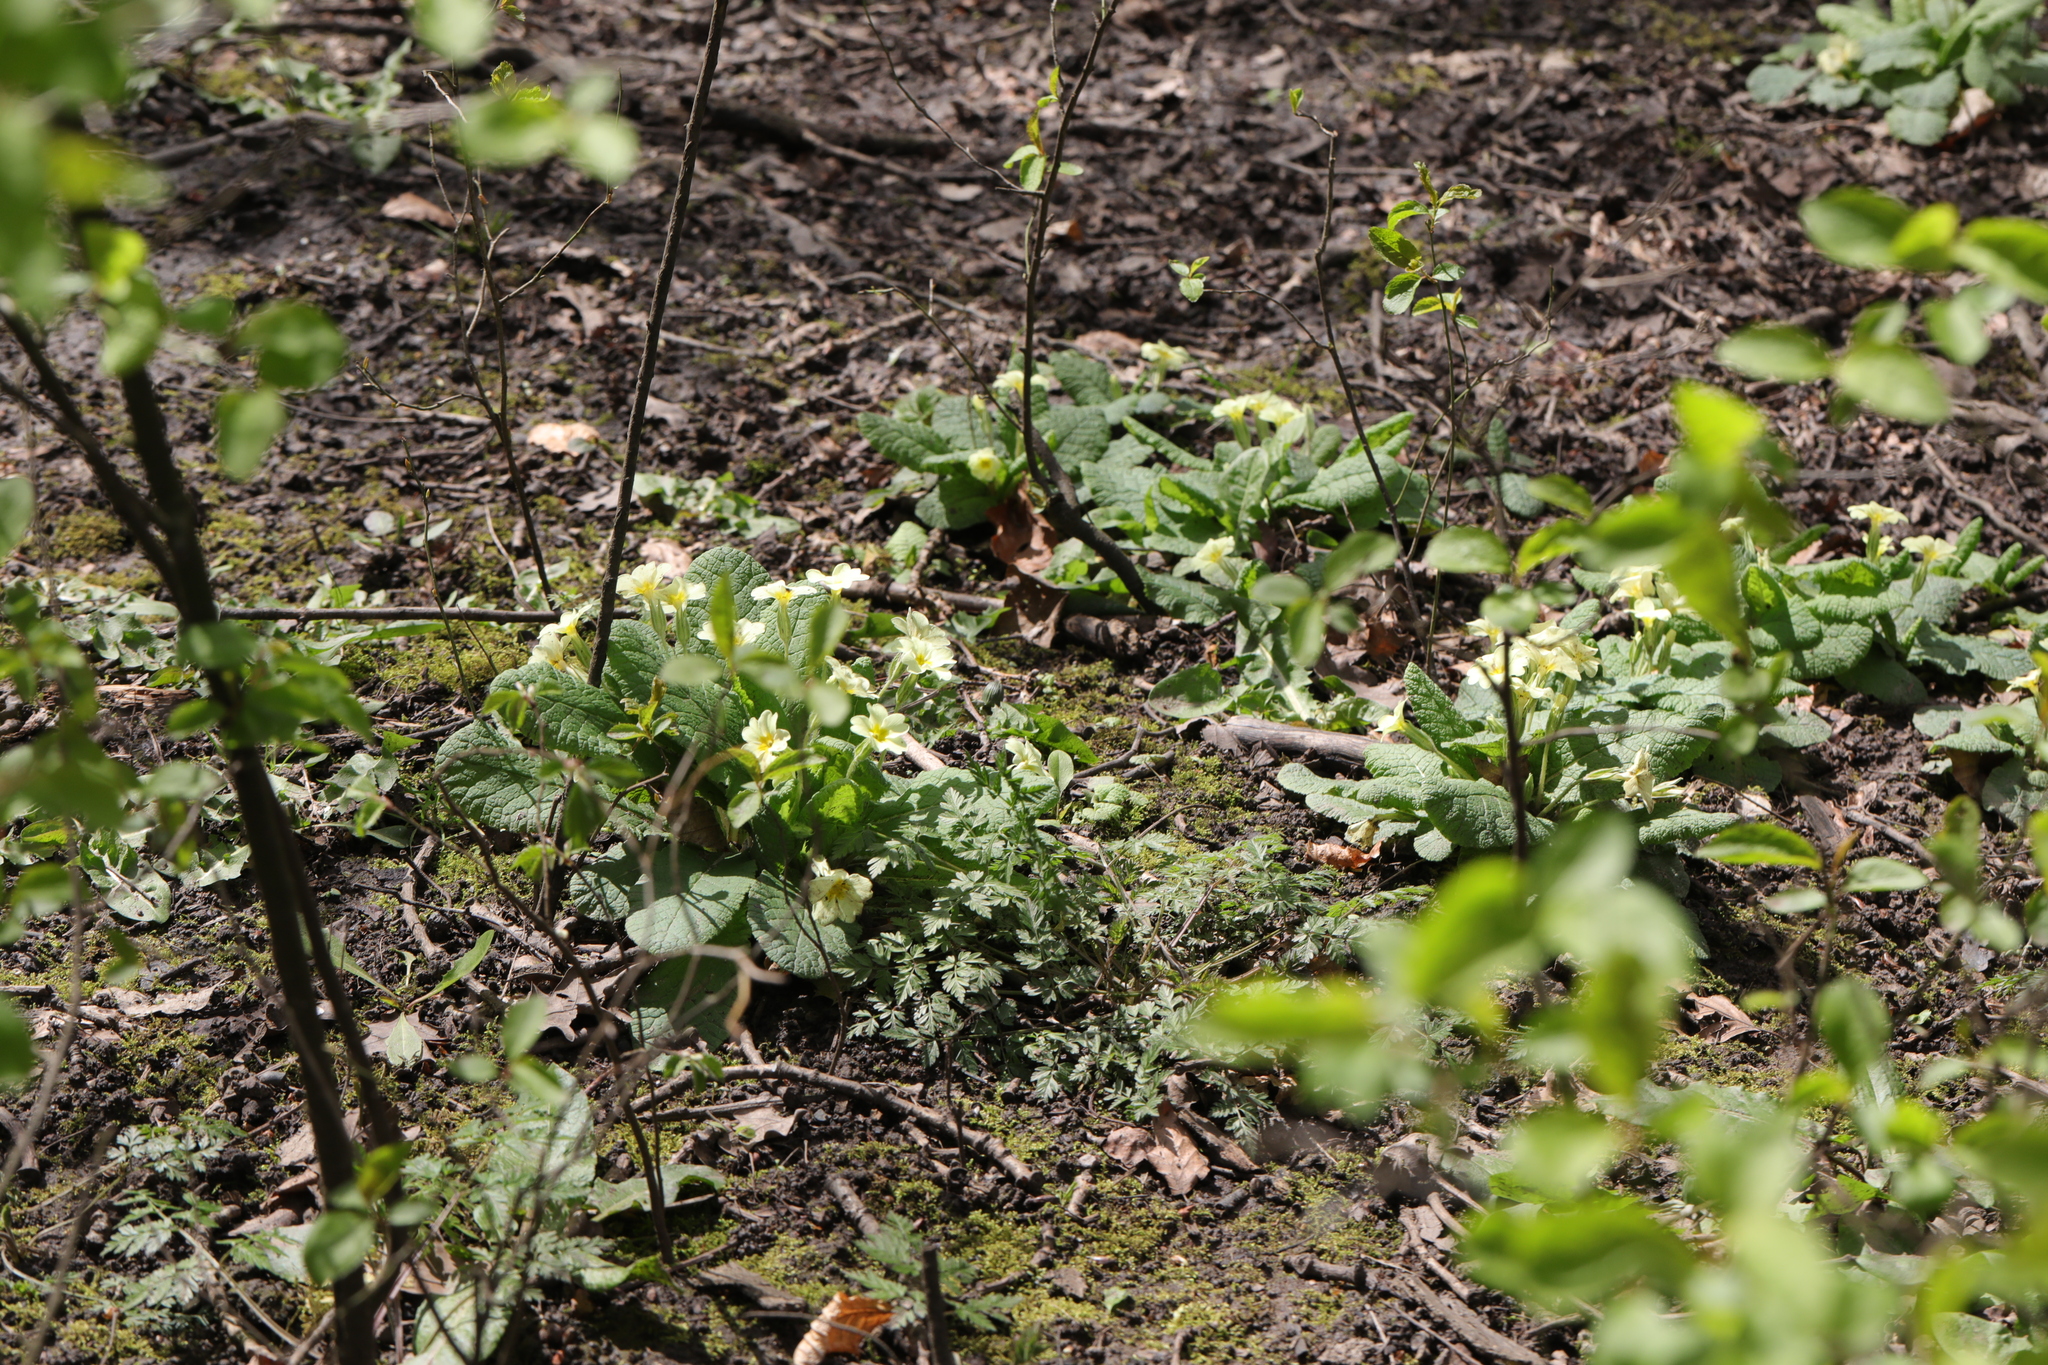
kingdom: Plantae
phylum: Tracheophyta
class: Magnoliopsida
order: Ericales
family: Primulaceae
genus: Primula
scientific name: Primula vulgaris
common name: Primrose
